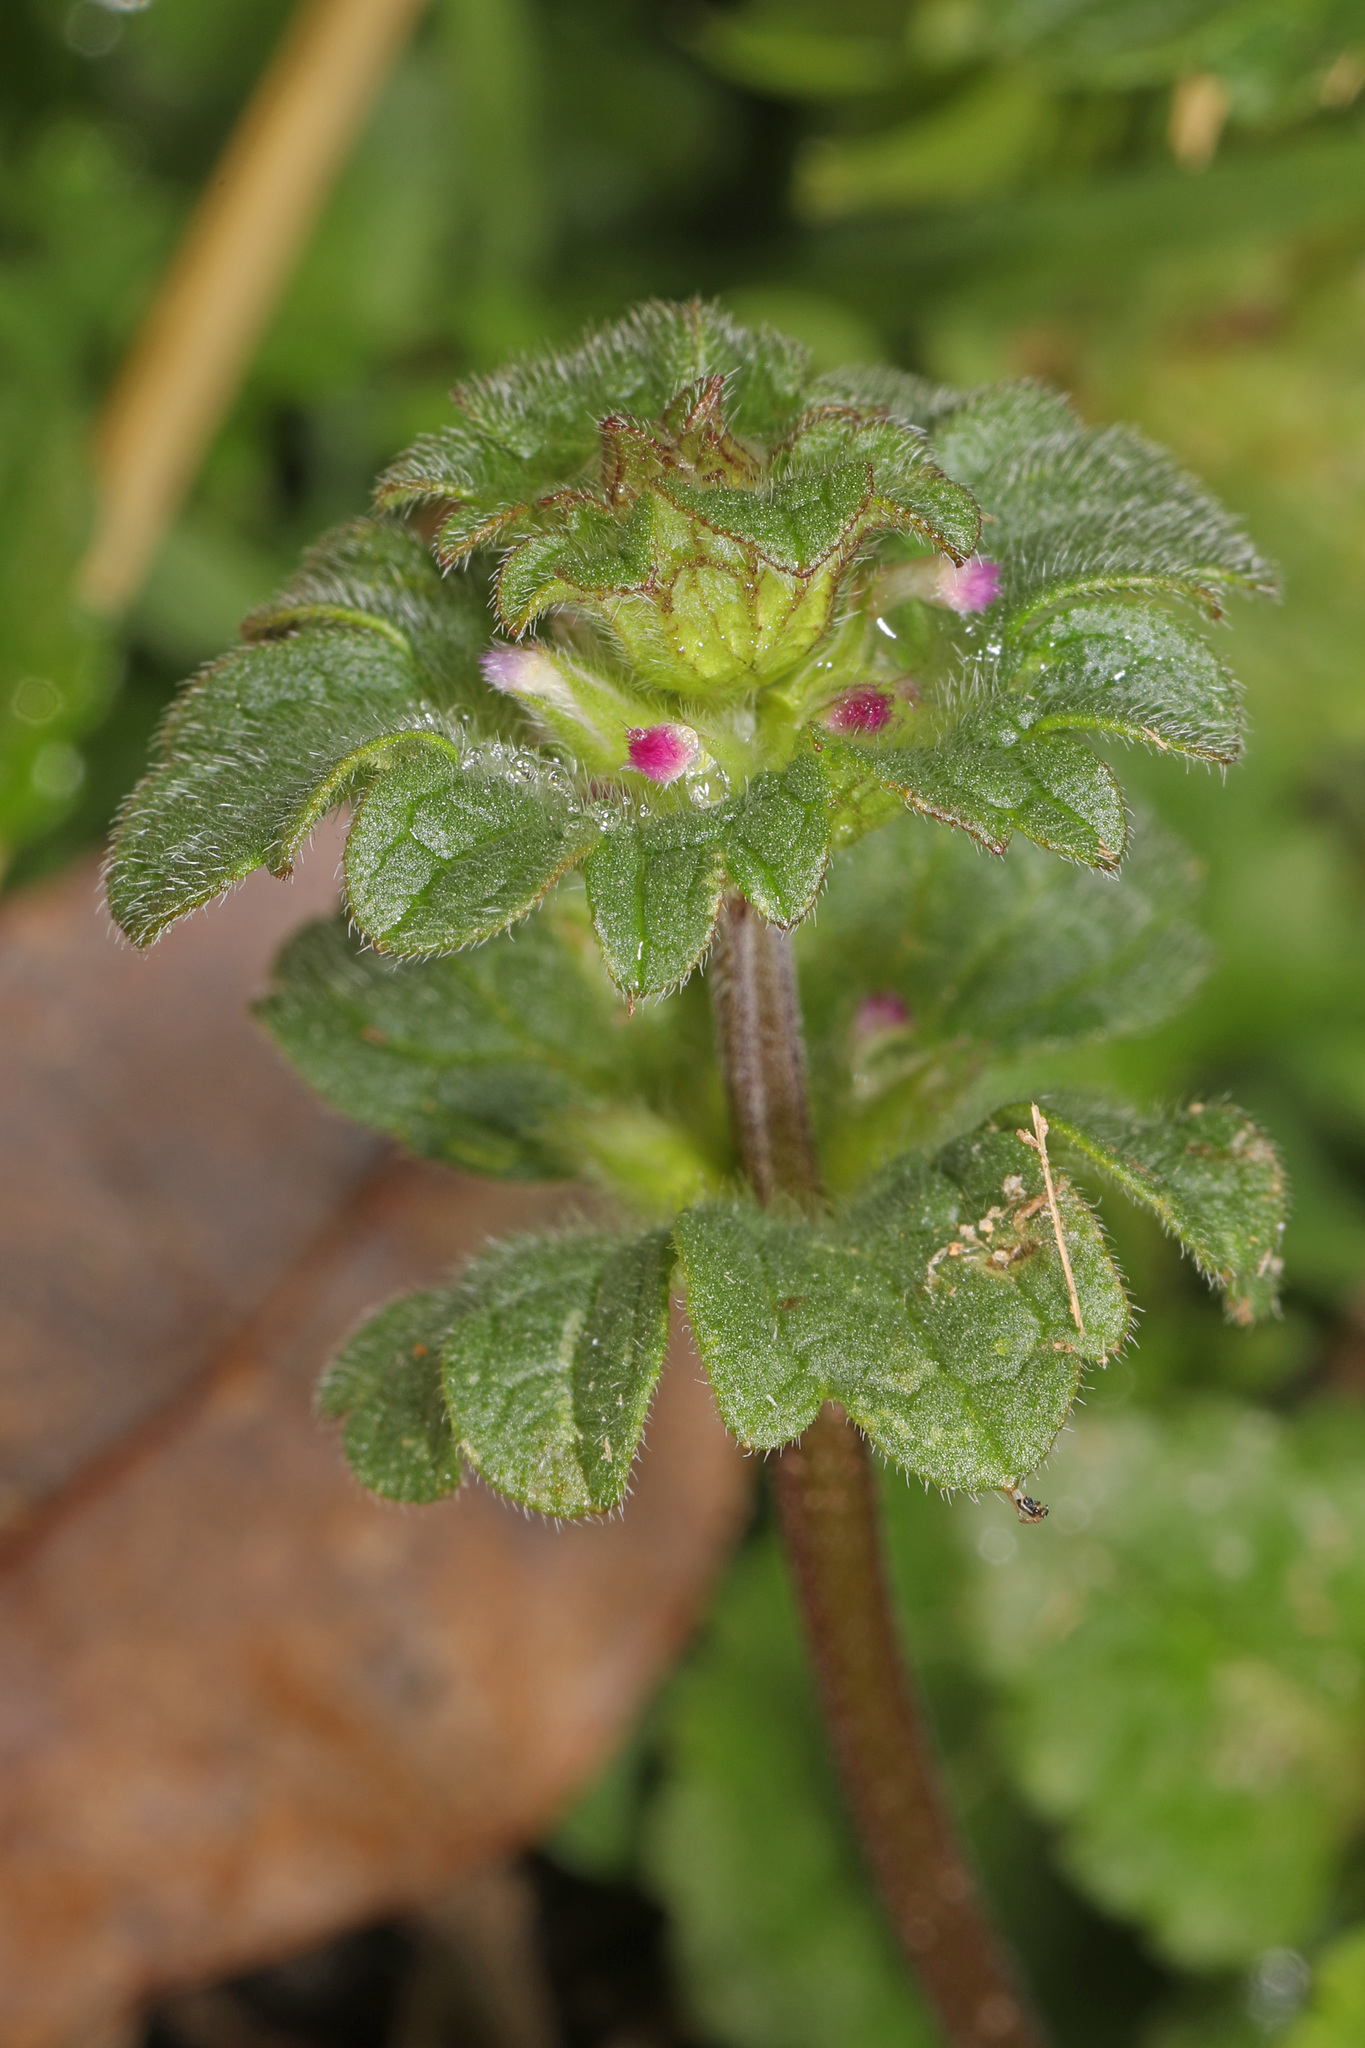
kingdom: Plantae
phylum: Tracheophyta
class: Magnoliopsida
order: Lamiales
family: Lamiaceae
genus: Lamium
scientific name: Lamium amplexicaule
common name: Henbit dead-nettle
